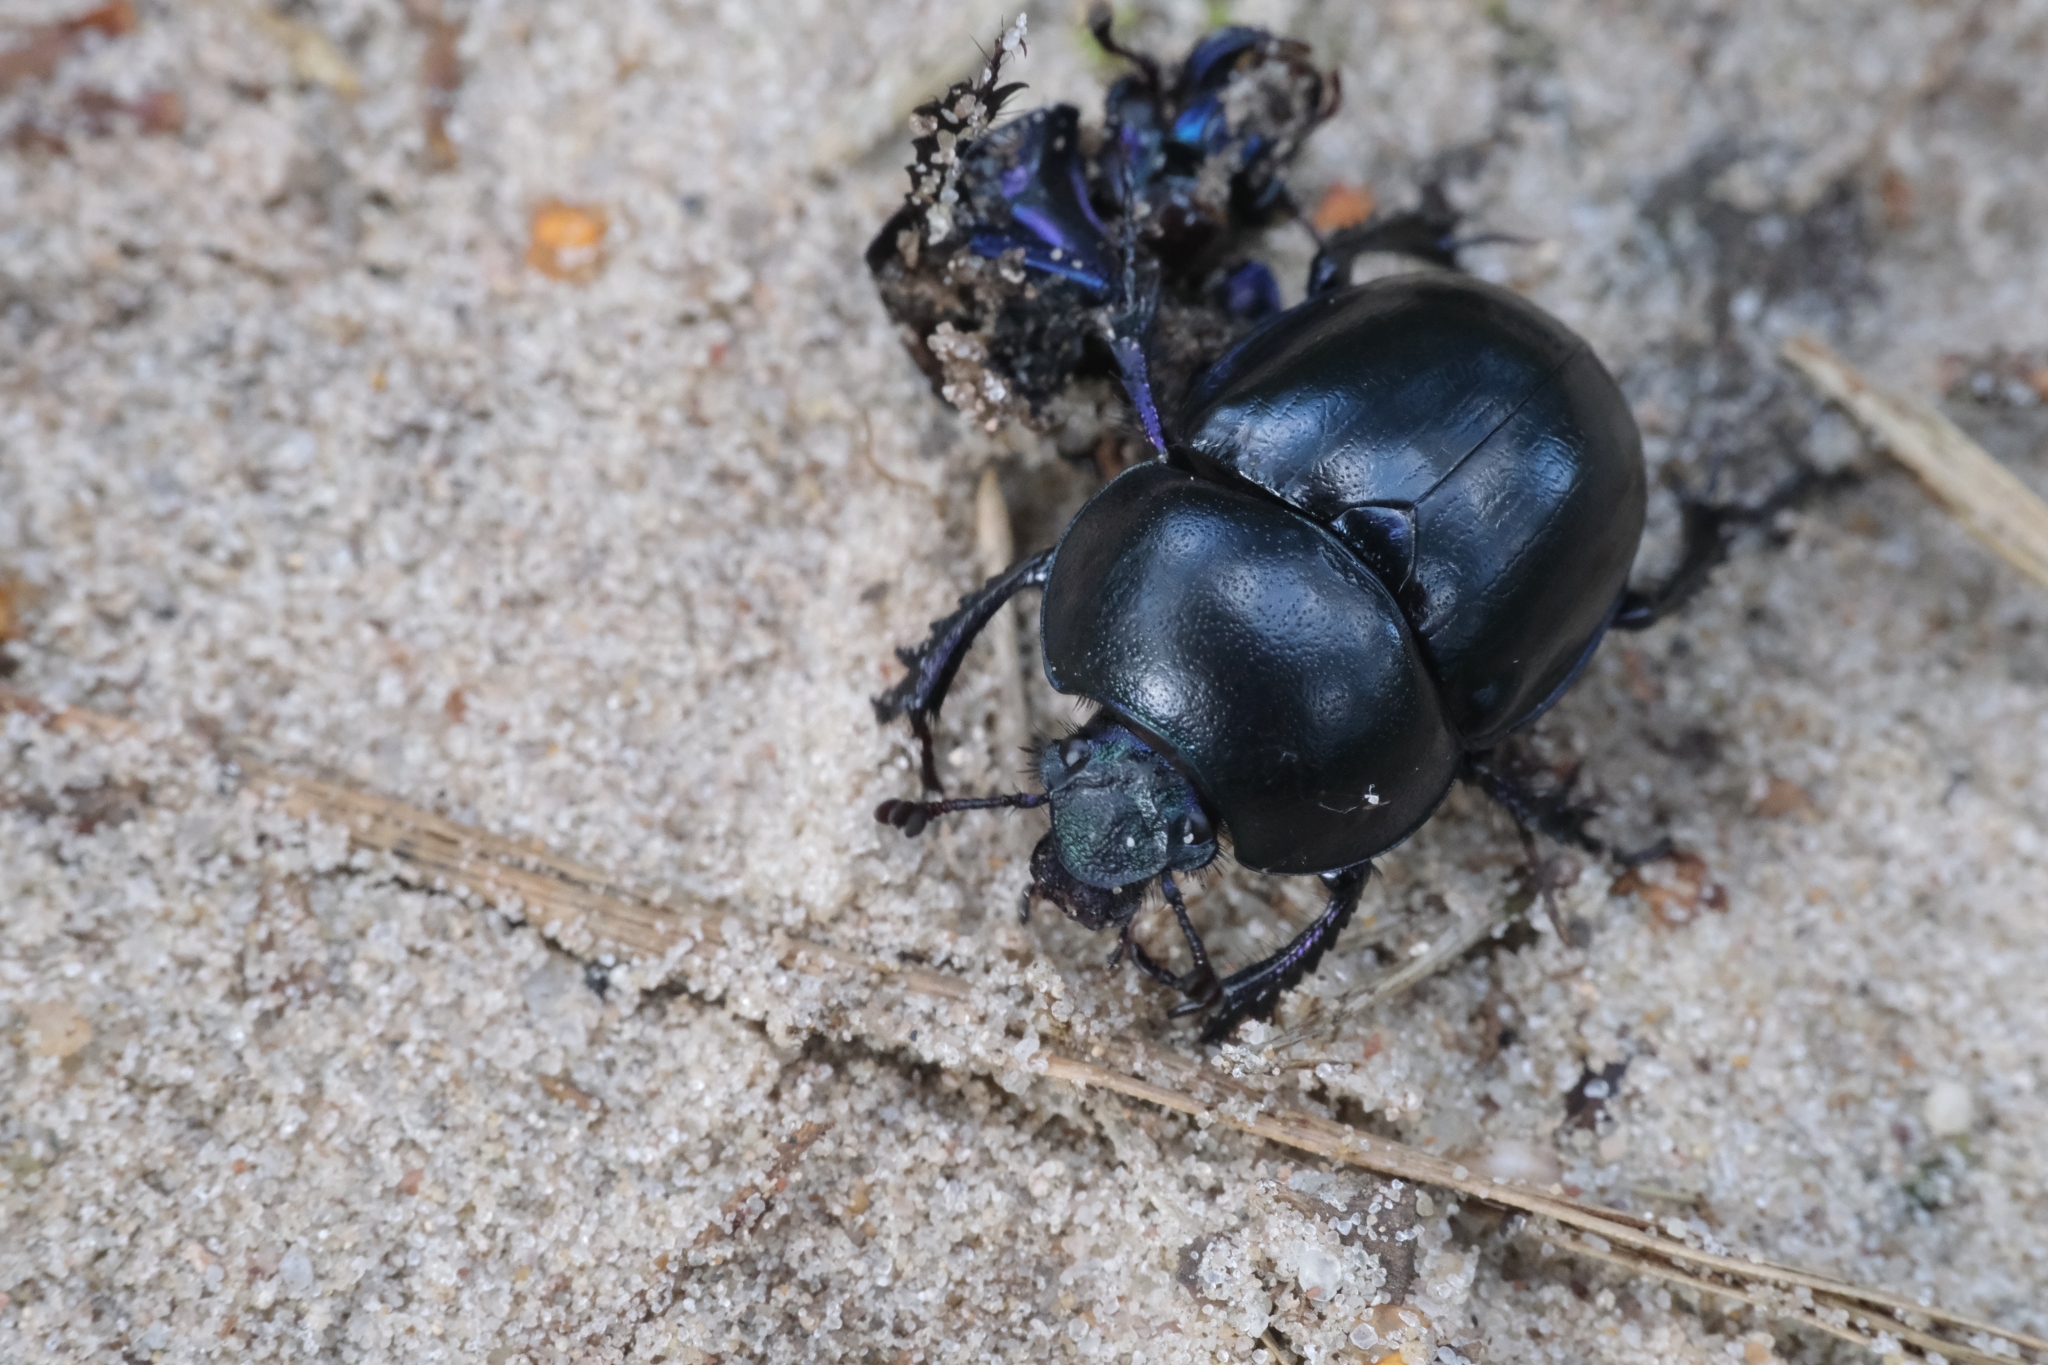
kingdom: Animalia
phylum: Arthropoda
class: Insecta
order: Coleoptera
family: Geotrupidae
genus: Trypocopris
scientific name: Trypocopris vernalis
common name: Spring dumbledor
